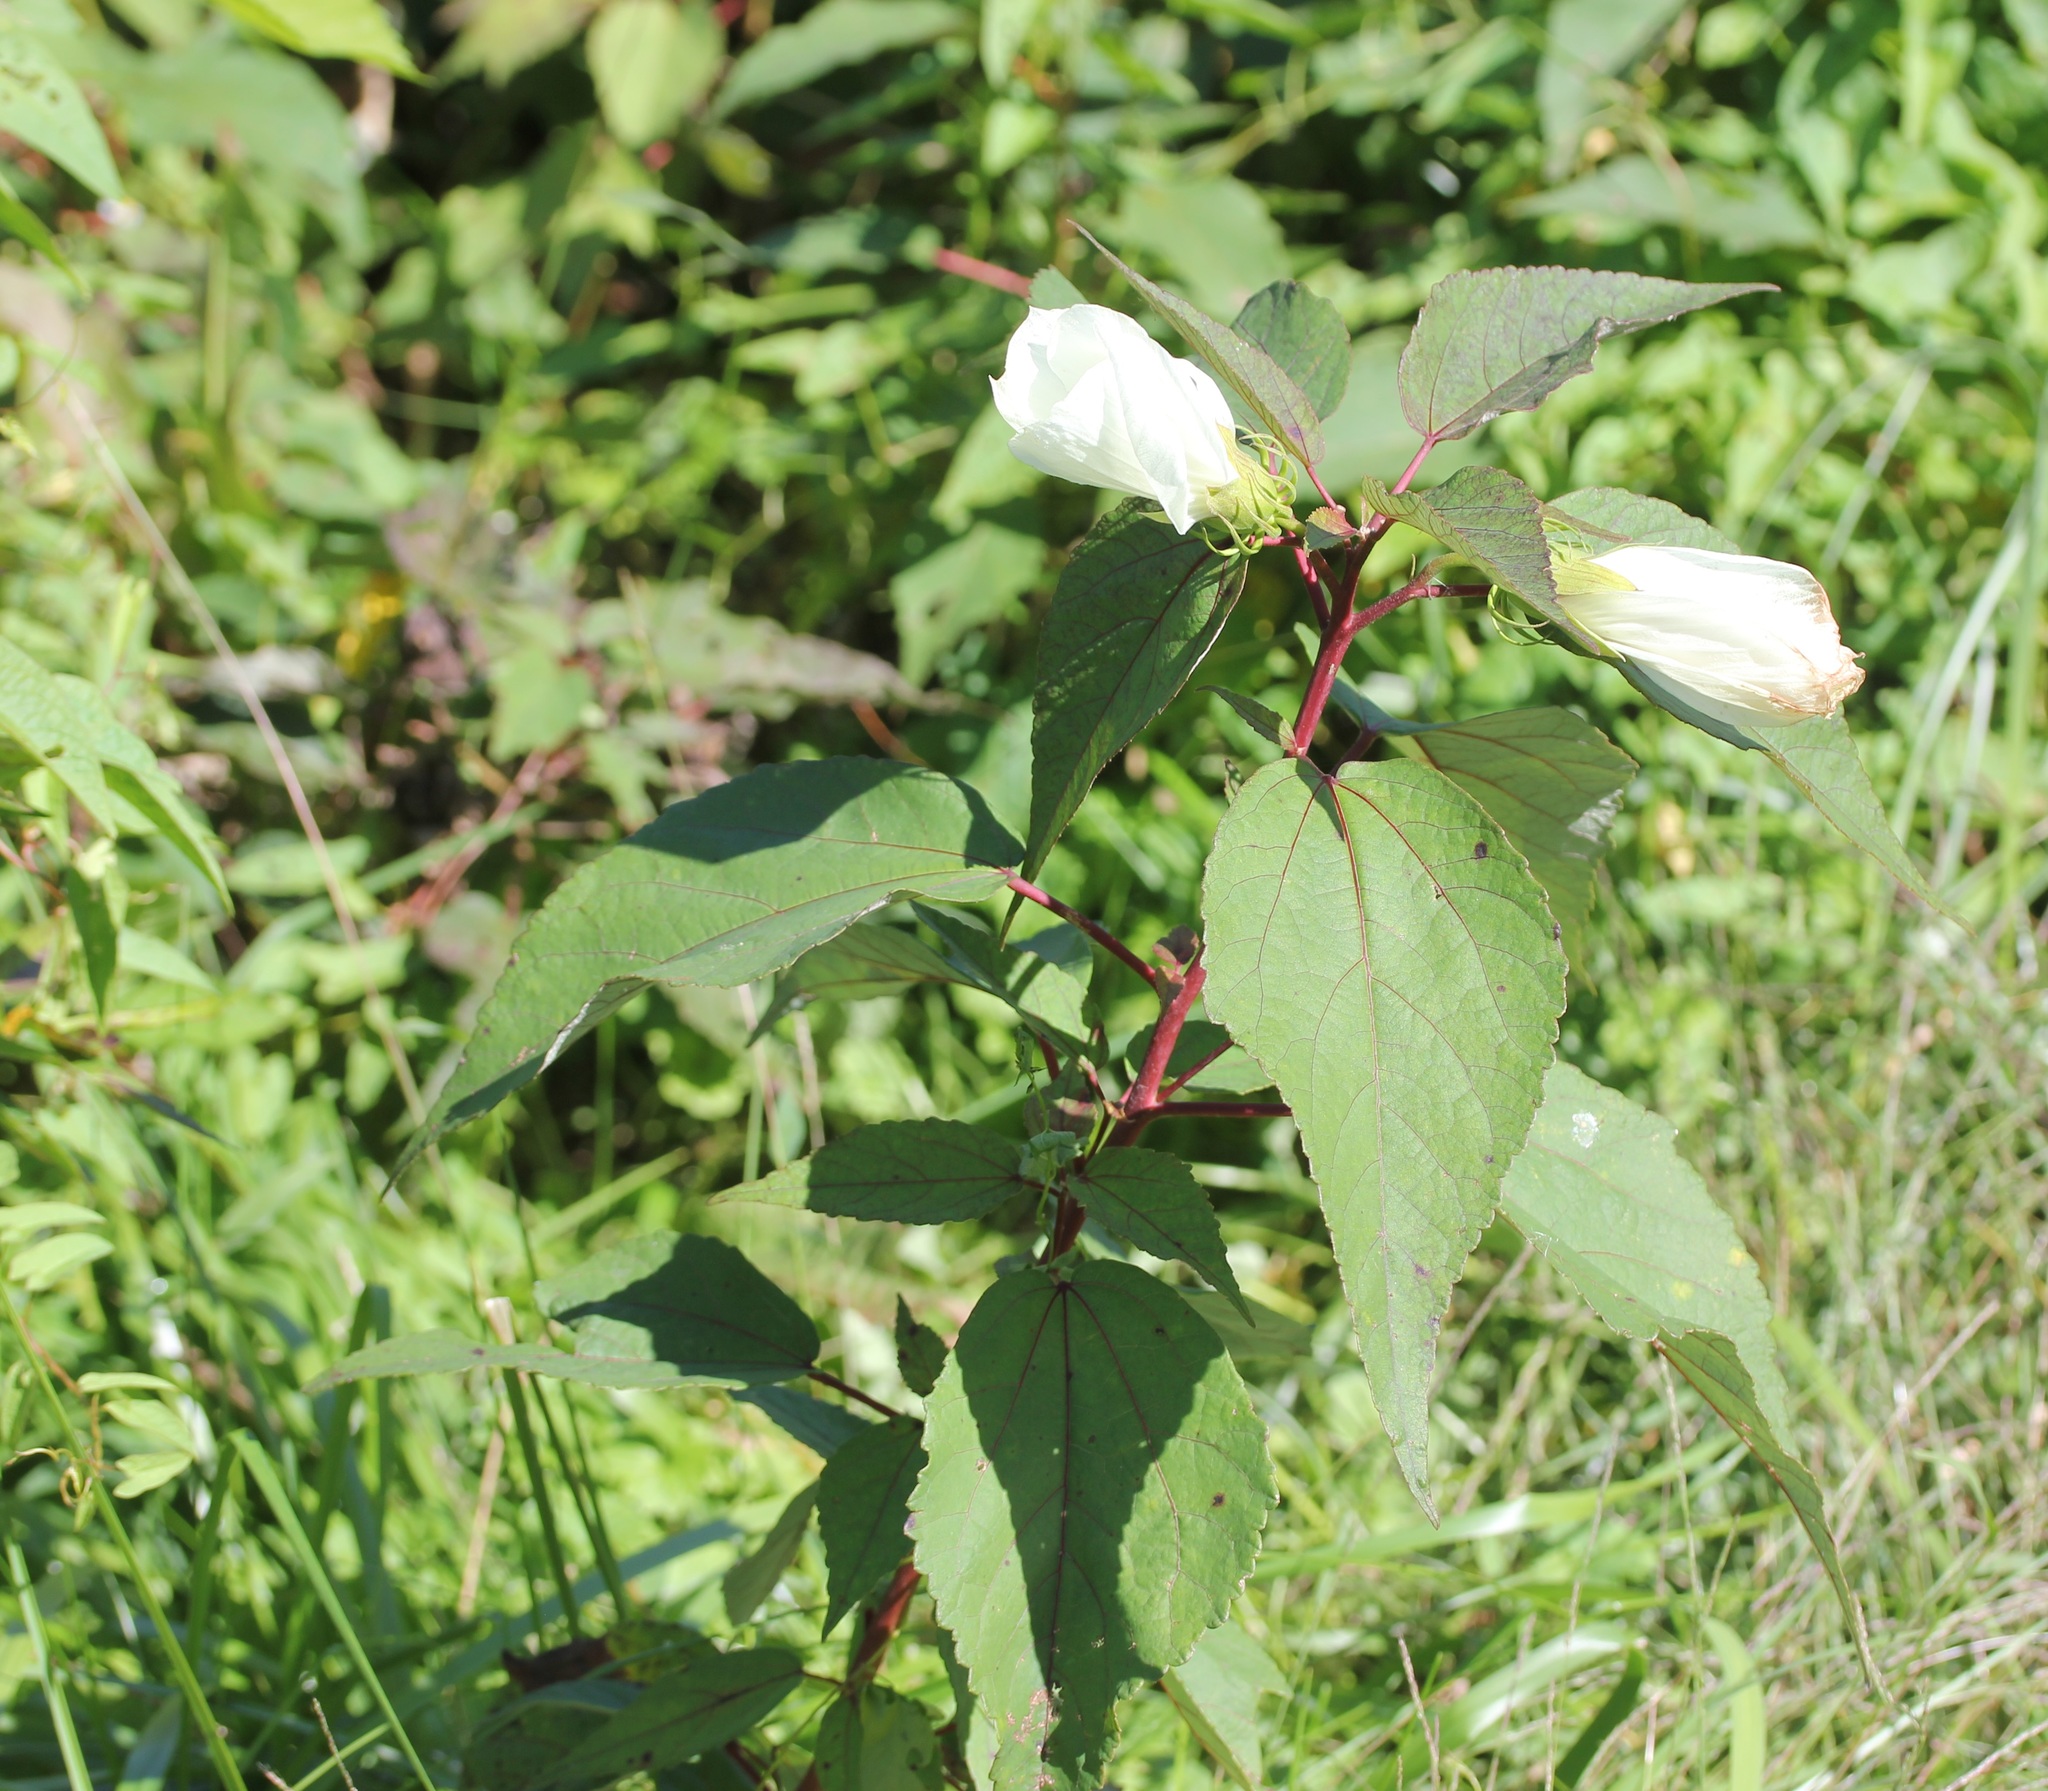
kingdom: Plantae
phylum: Tracheophyta
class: Magnoliopsida
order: Malvales
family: Malvaceae
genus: Hibiscus
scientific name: Hibiscus moscheutos
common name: Common rose-mallow
